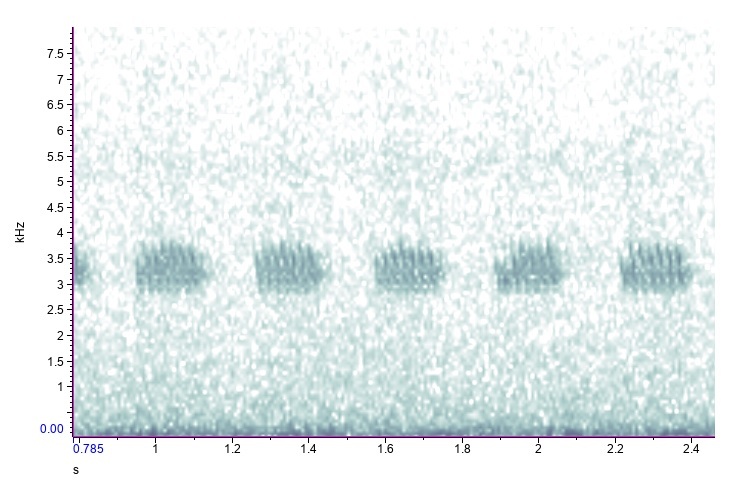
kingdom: Animalia
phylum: Arthropoda
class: Insecta
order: Orthoptera
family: Gryllidae
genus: Velarifictorus
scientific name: Velarifictorus micado
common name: Japanese burrowing cricket
